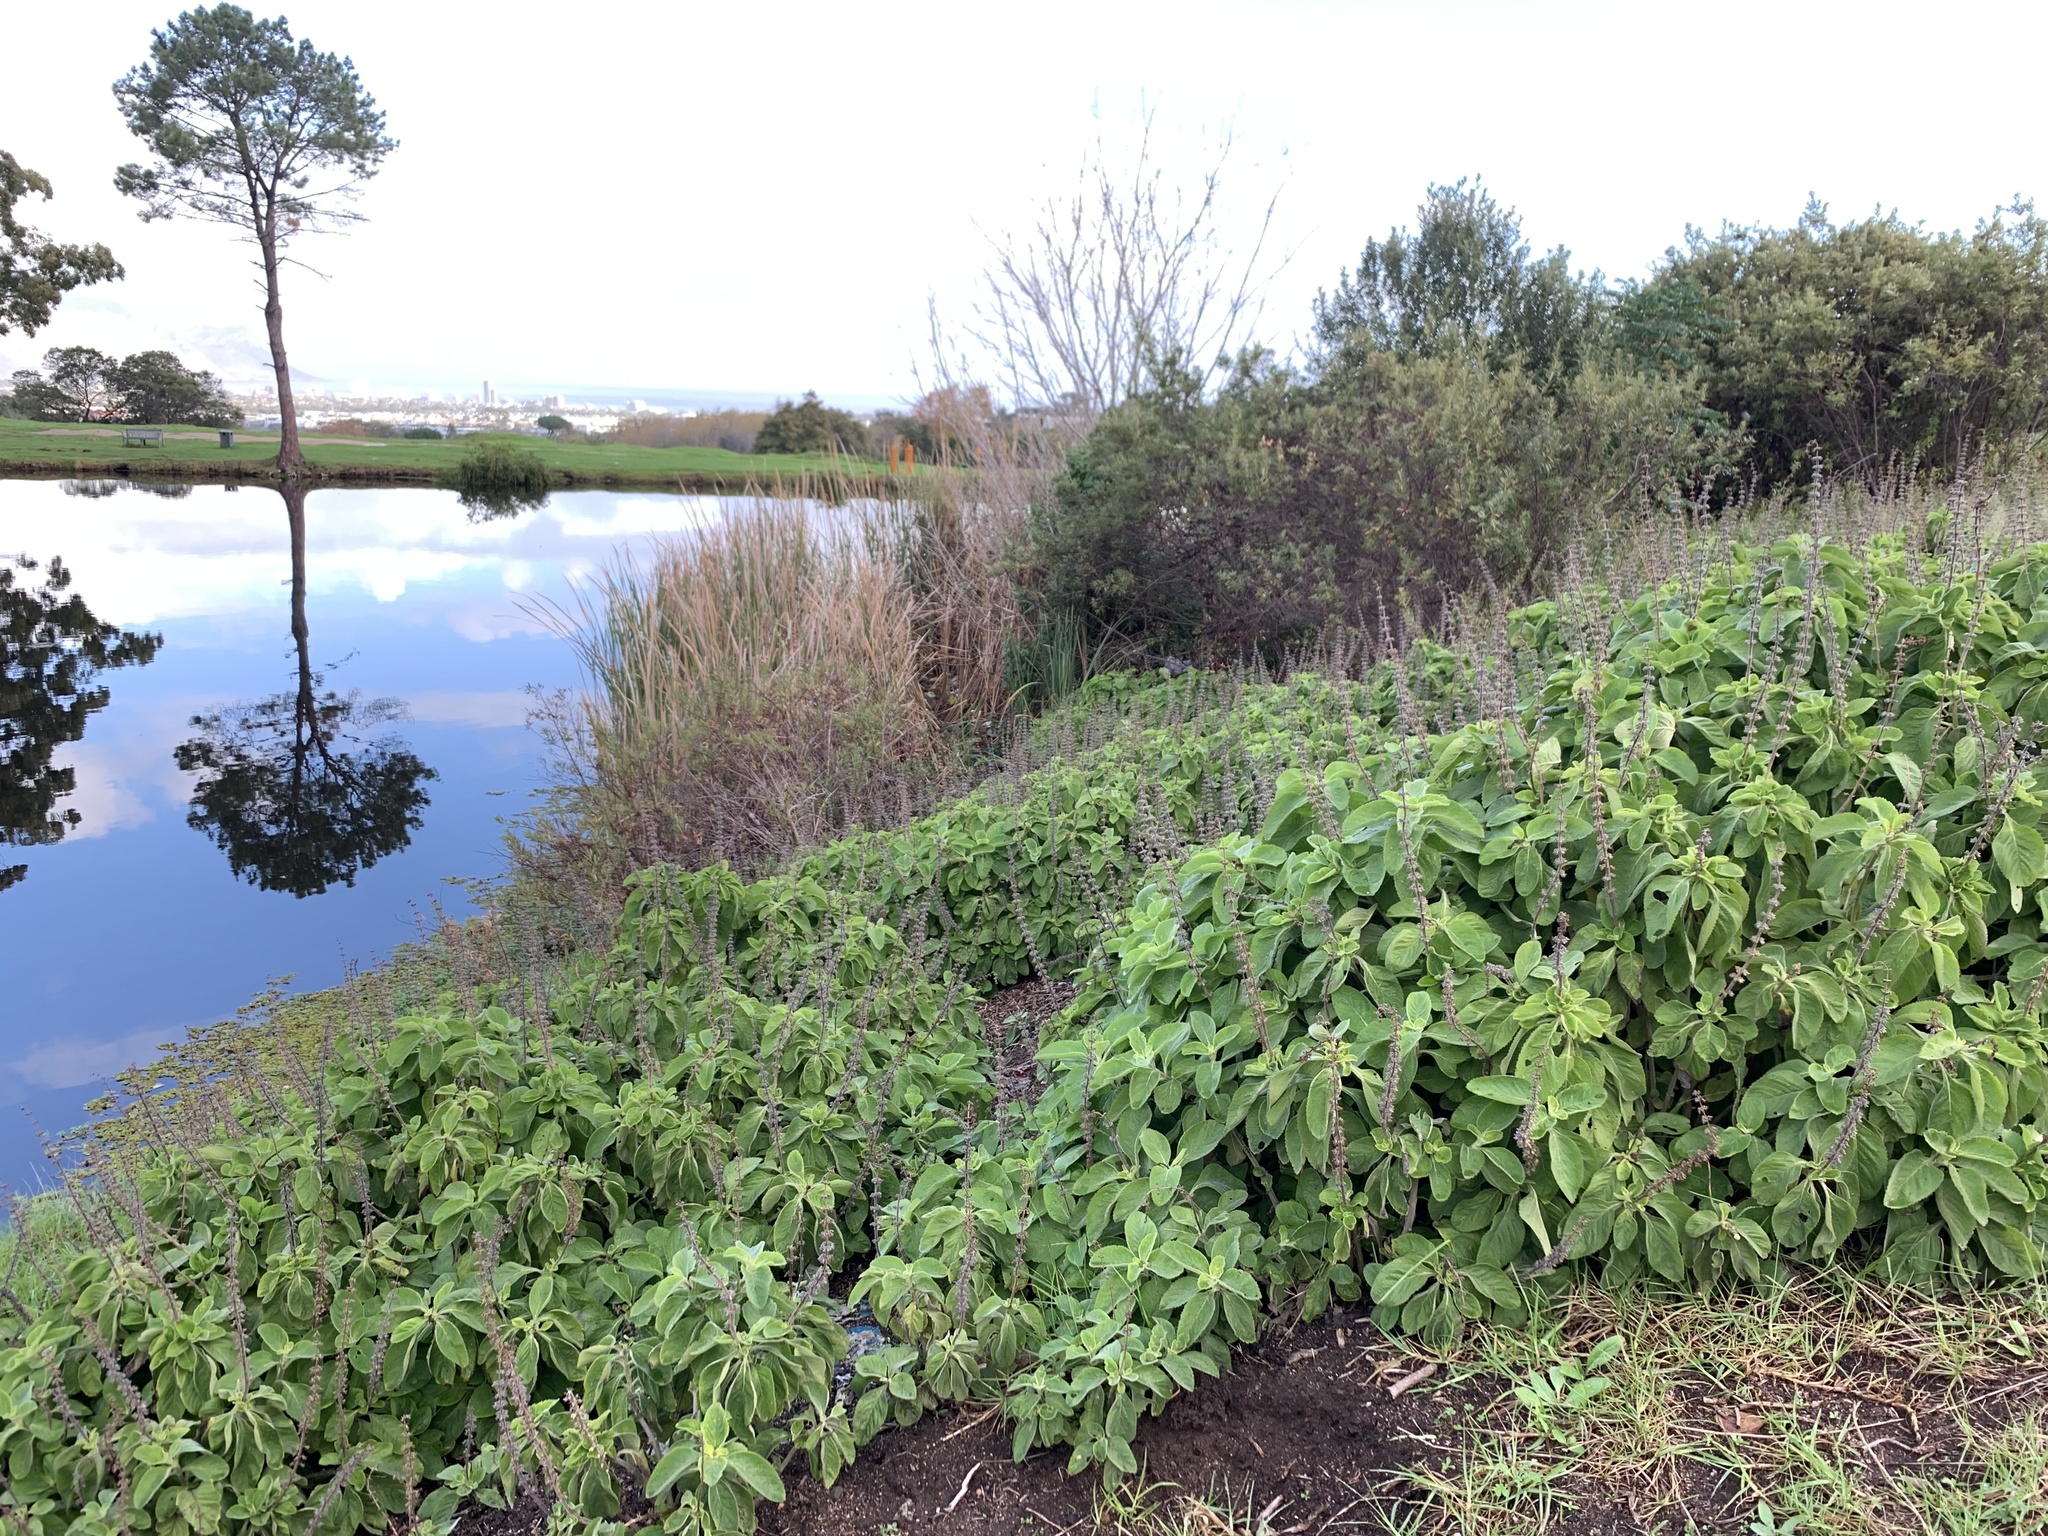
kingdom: Plantae
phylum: Tracheophyta
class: Magnoliopsida
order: Lamiales
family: Lamiaceae
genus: Coleus
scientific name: Coleus barbatus
